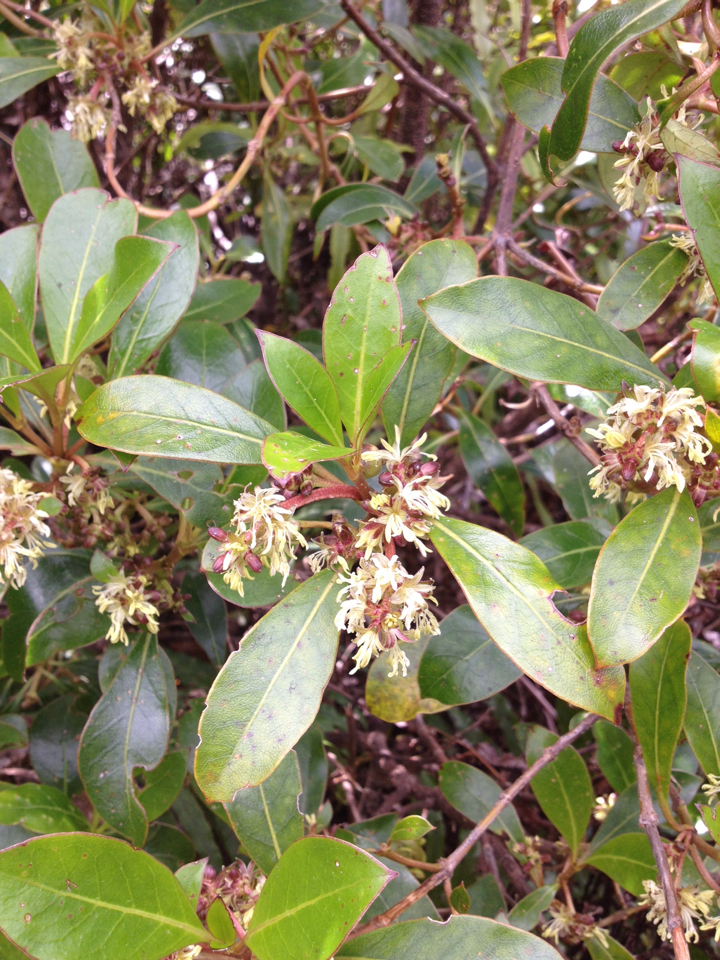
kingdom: Plantae
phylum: Tracheophyta
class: Magnoliopsida
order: Gentianales
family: Rubiaceae
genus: Coprosma
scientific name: Coprosma lucida
